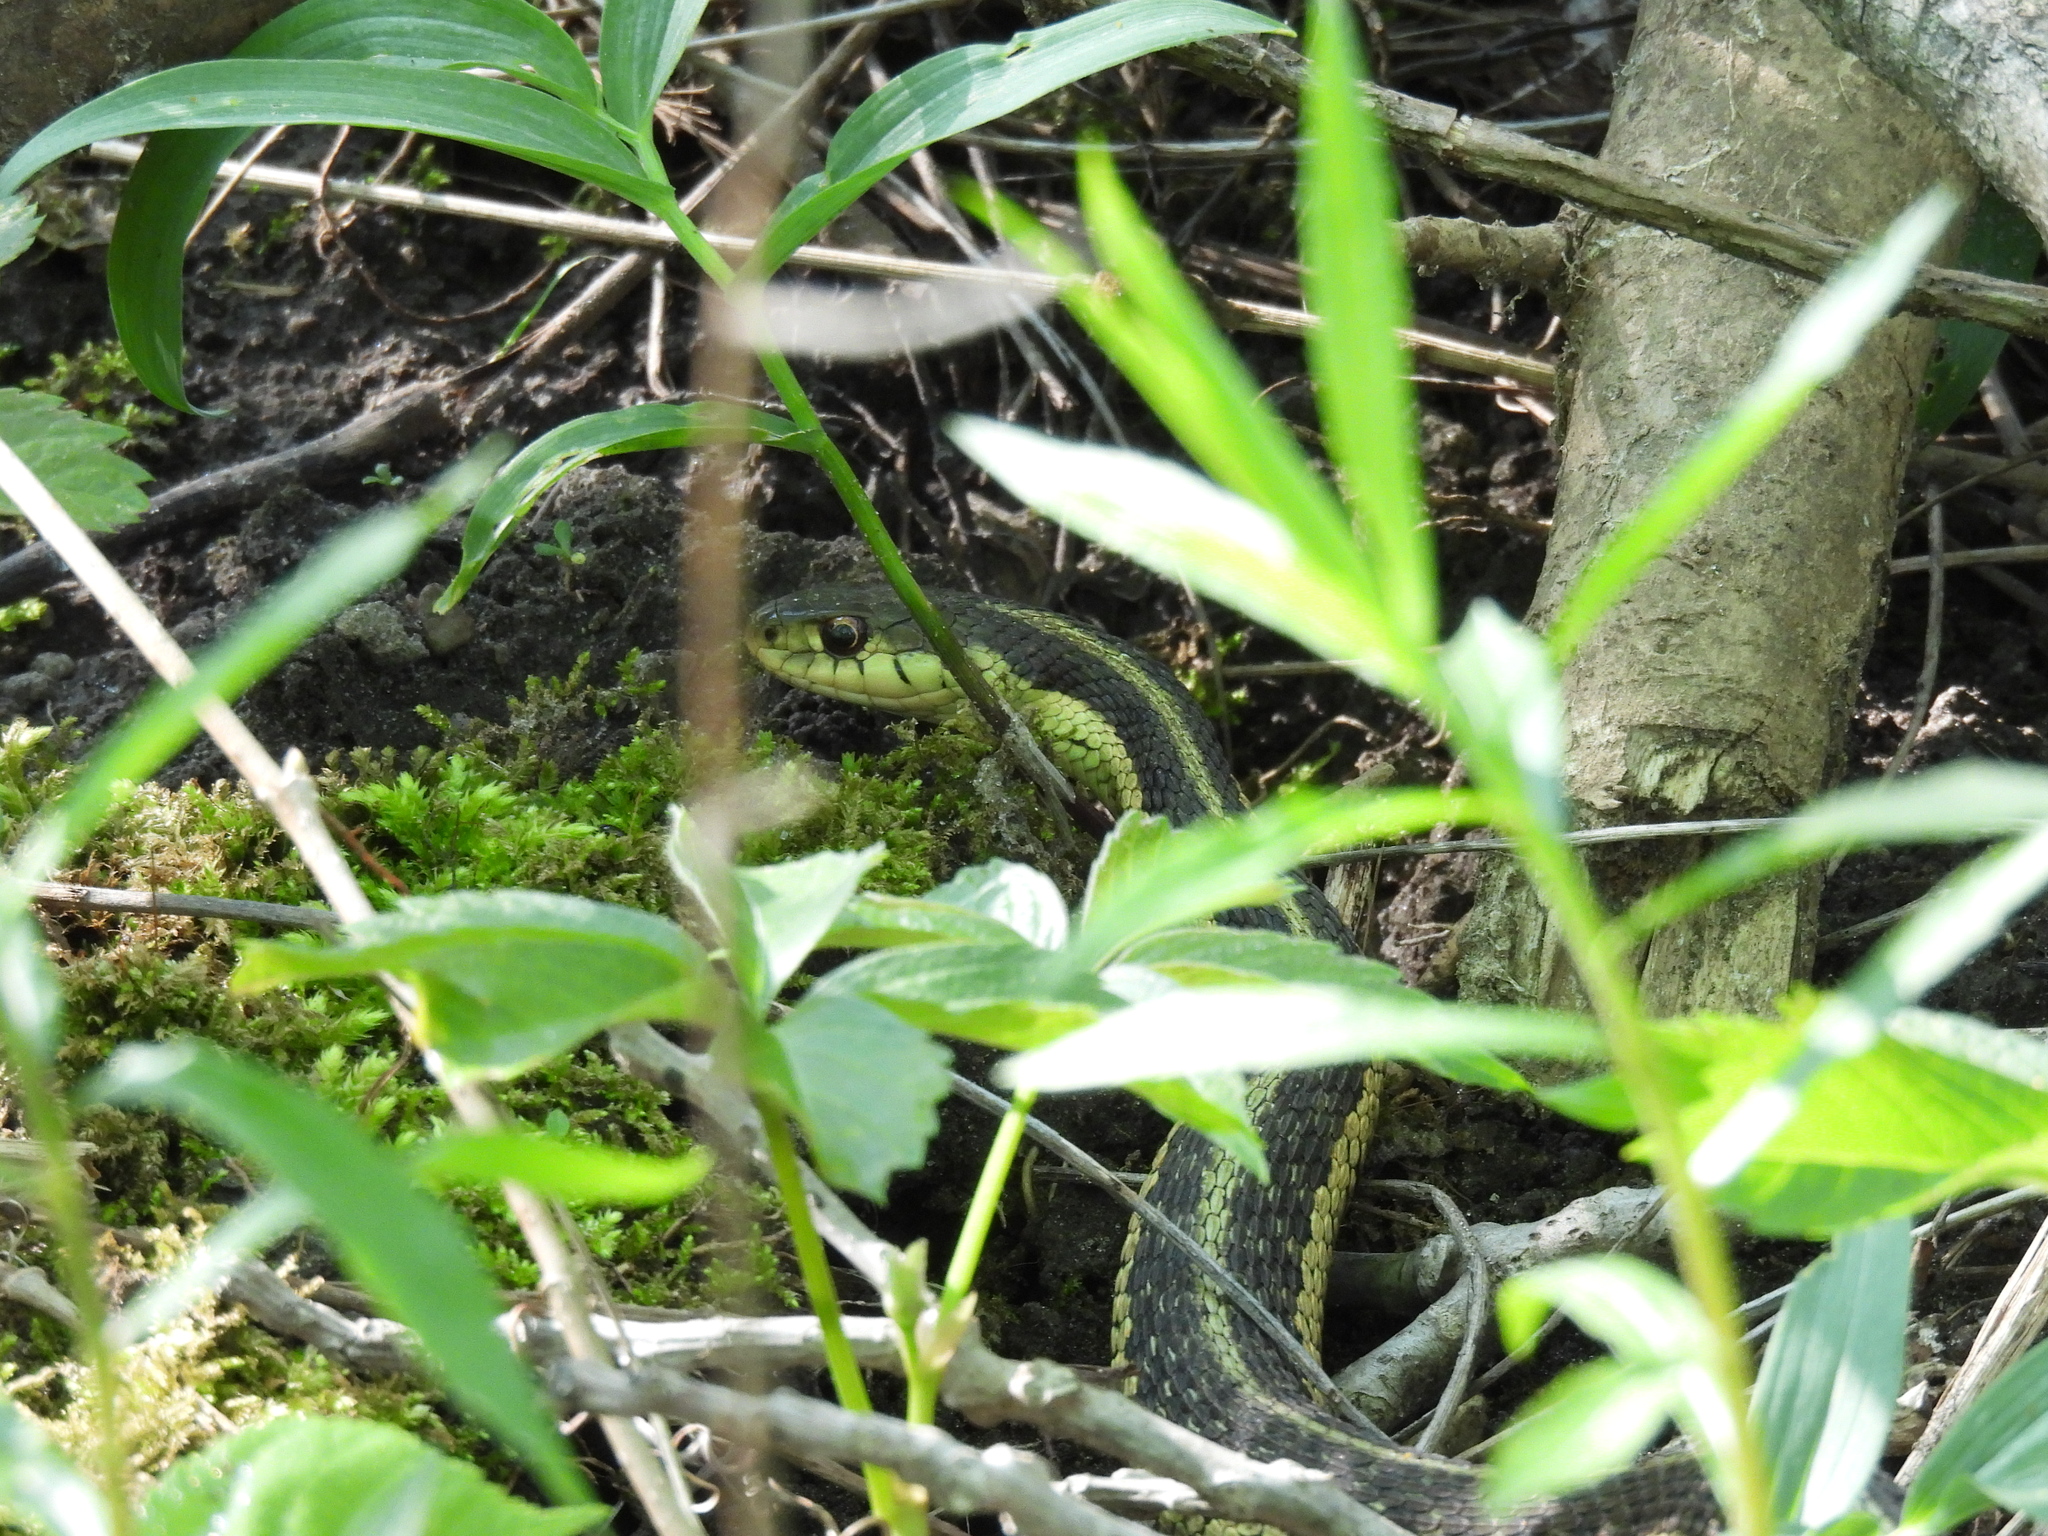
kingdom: Animalia
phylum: Chordata
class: Squamata
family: Colubridae
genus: Thamnophis
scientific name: Thamnophis sirtalis
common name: Common garter snake
